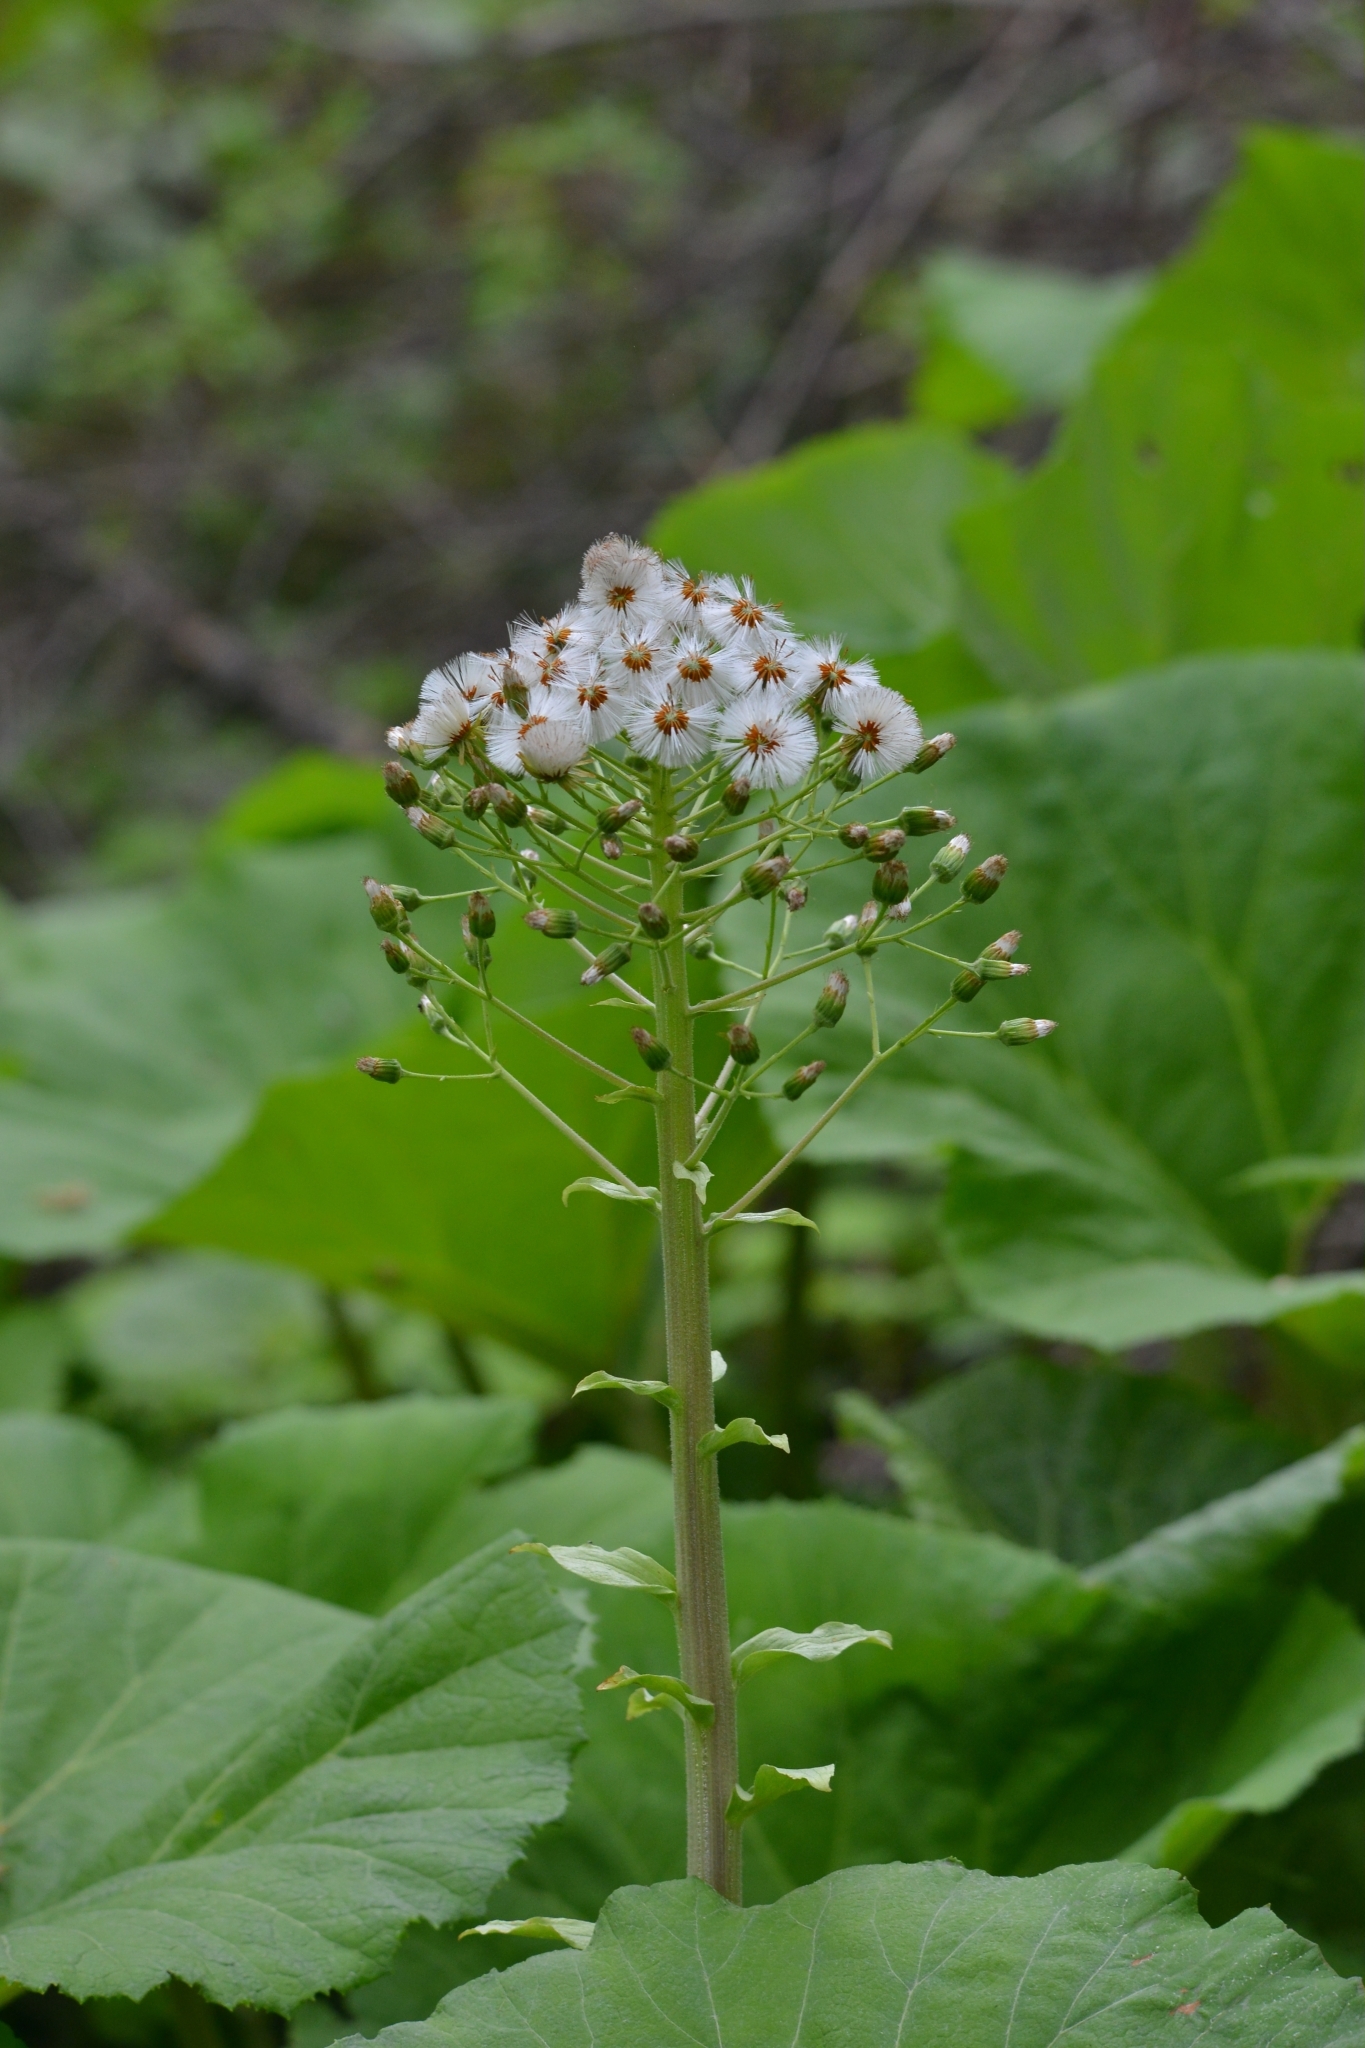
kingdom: Plantae
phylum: Tracheophyta
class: Magnoliopsida
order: Asterales
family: Asteraceae
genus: Petasites
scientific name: Petasites japonicus
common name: Giant butterbur
